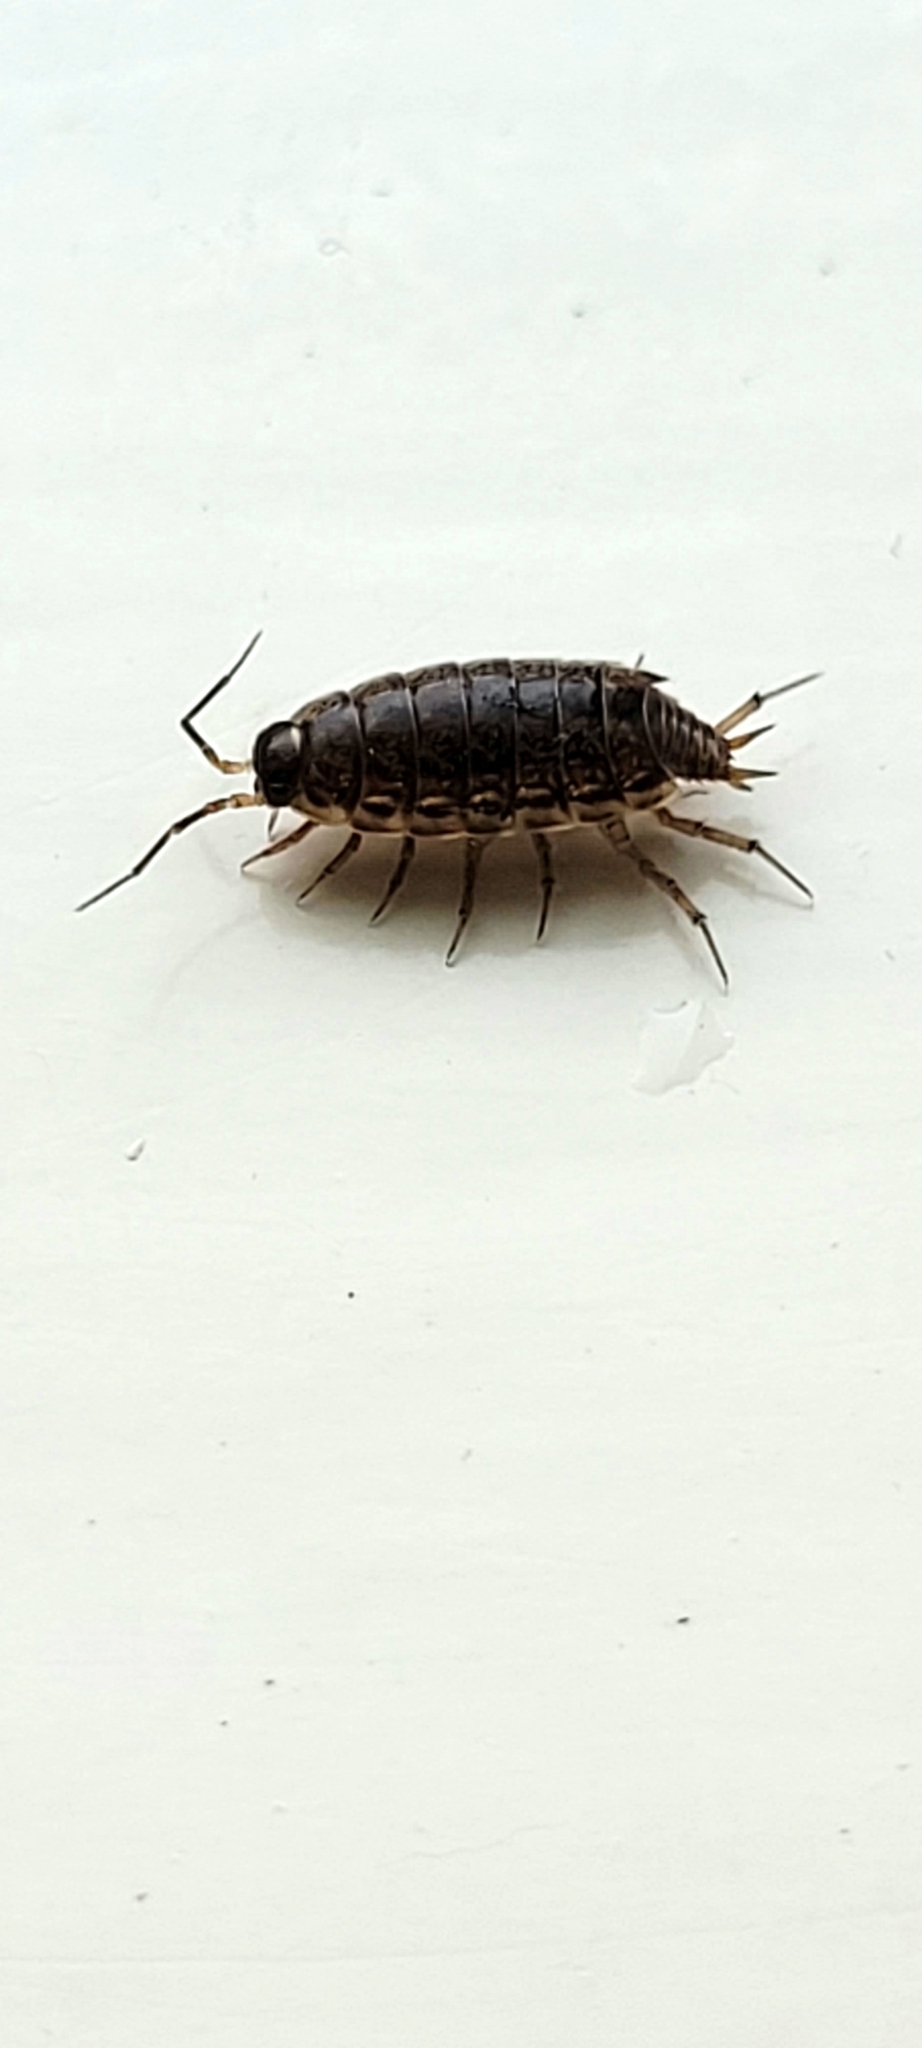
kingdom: Animalia
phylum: Arthropoda
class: Malacostraca
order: Isopoda
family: Philosciidae
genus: Philoscia
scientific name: Philoscia muscorum
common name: Common striped woodlouse
